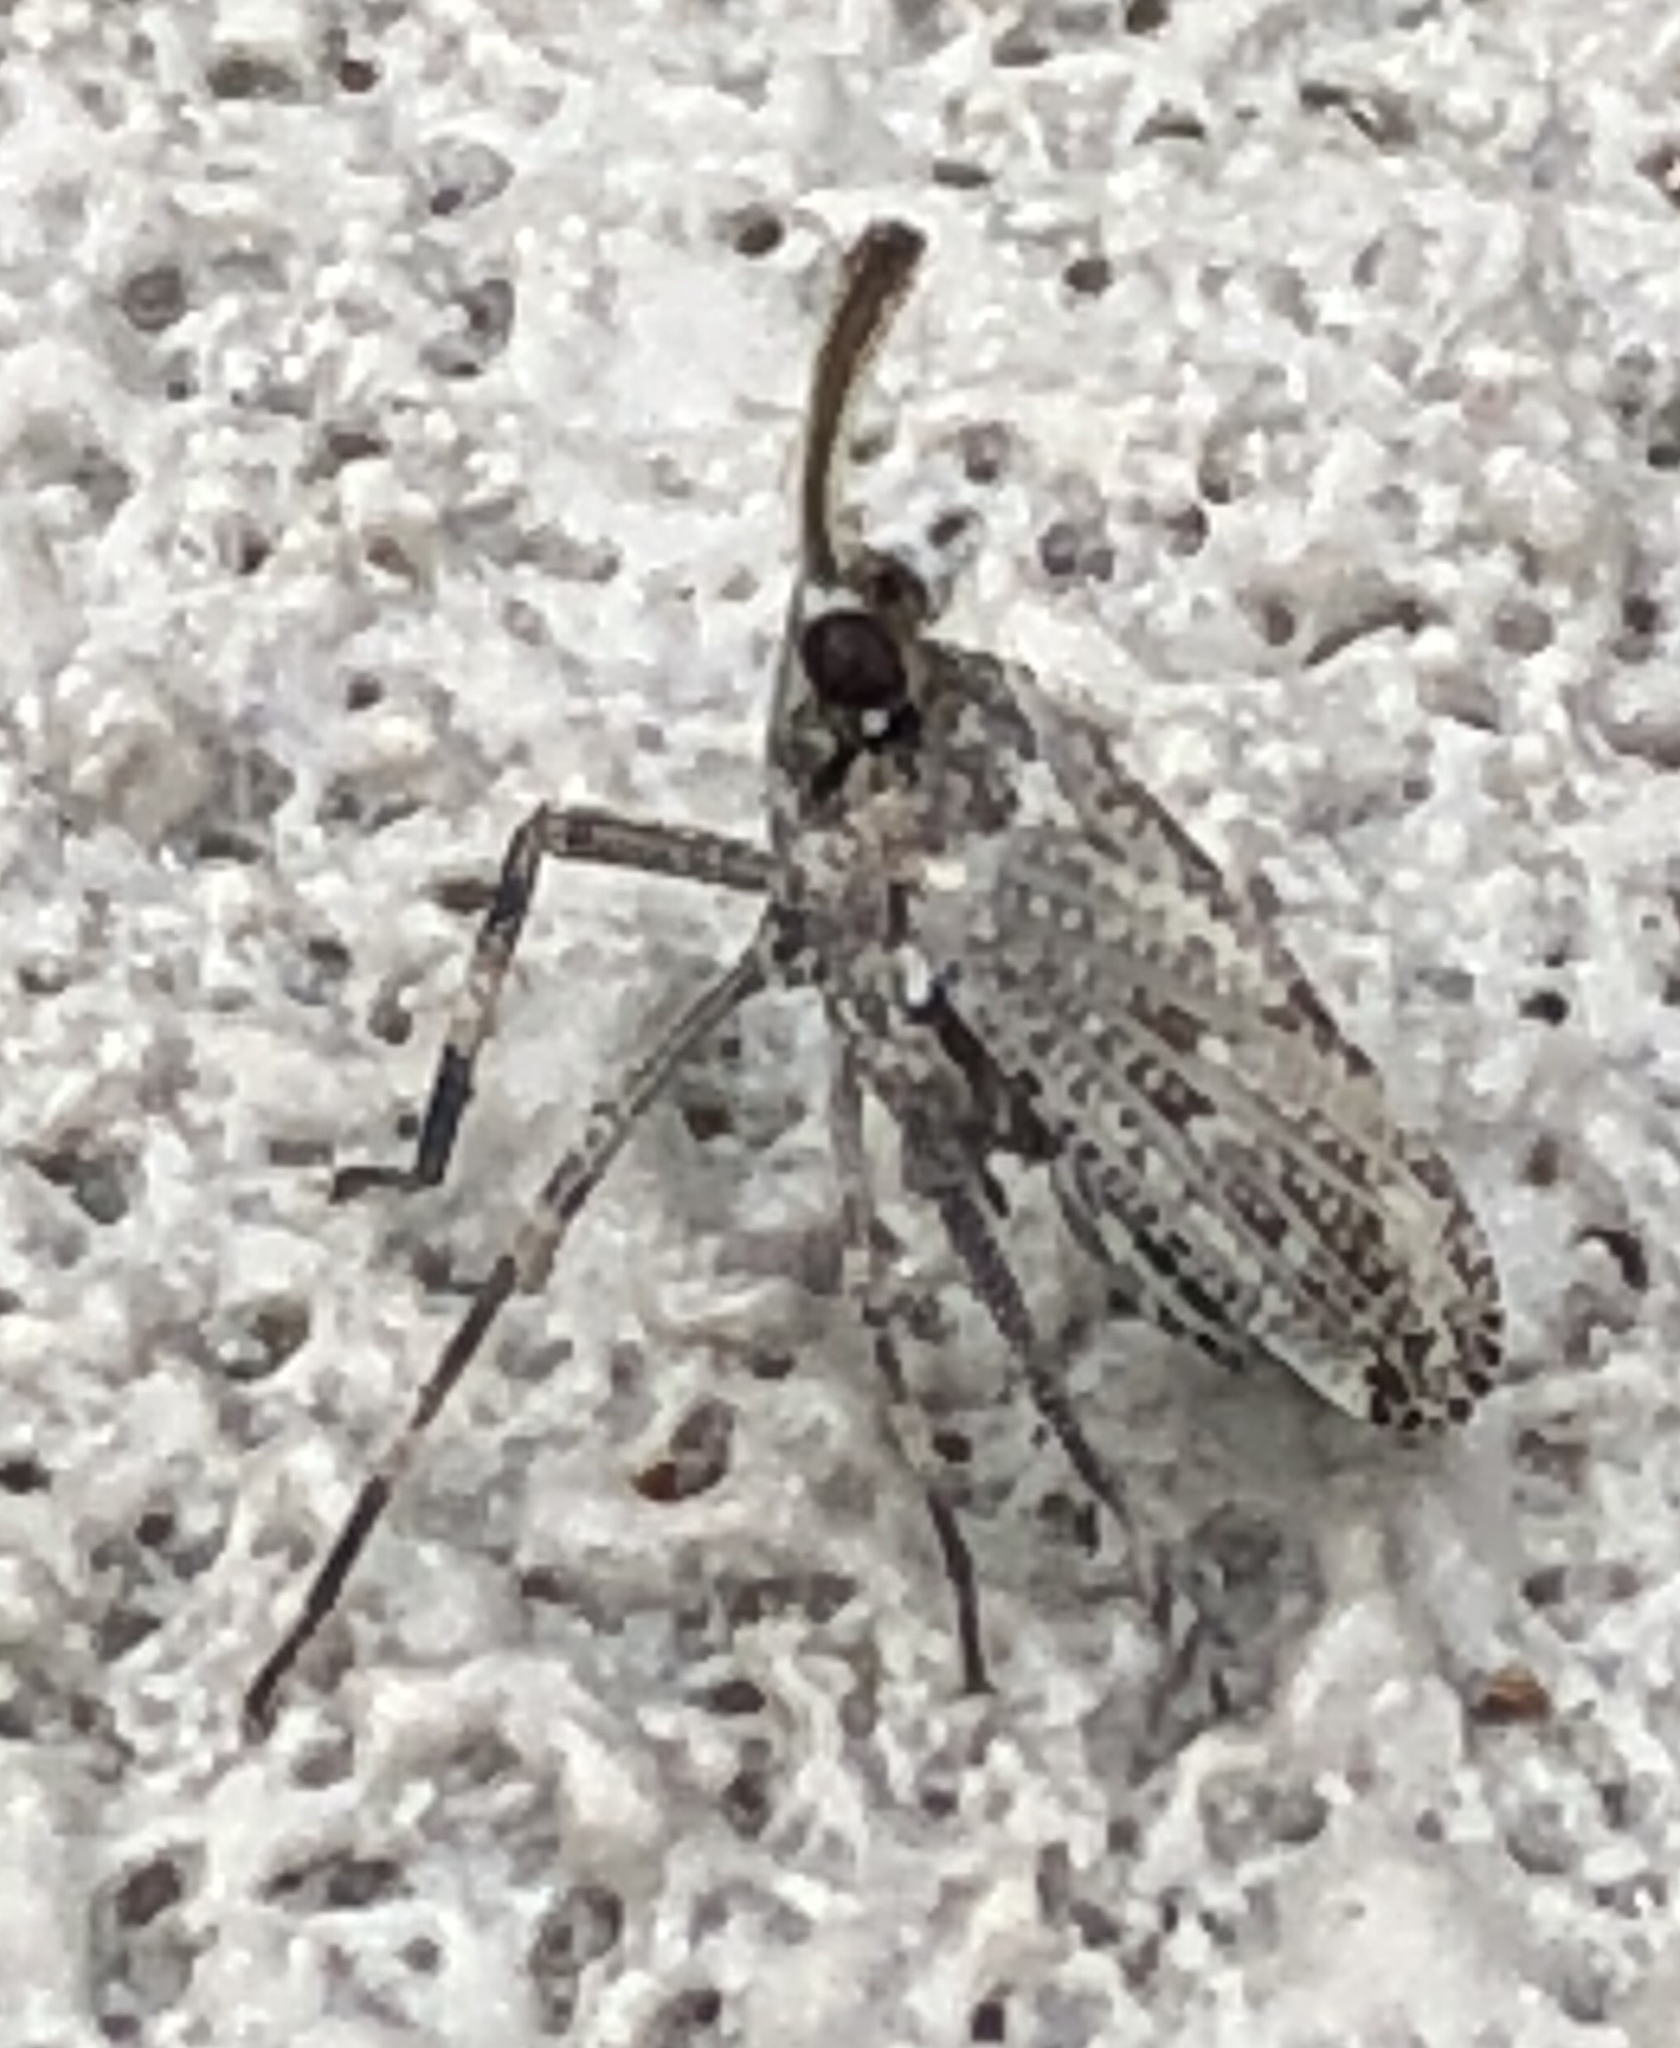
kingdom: Animalia
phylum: Arthropoda
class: Insecta
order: Hemiptera
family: Dictyopharidae
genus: Scolops
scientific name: Scolops pungens
